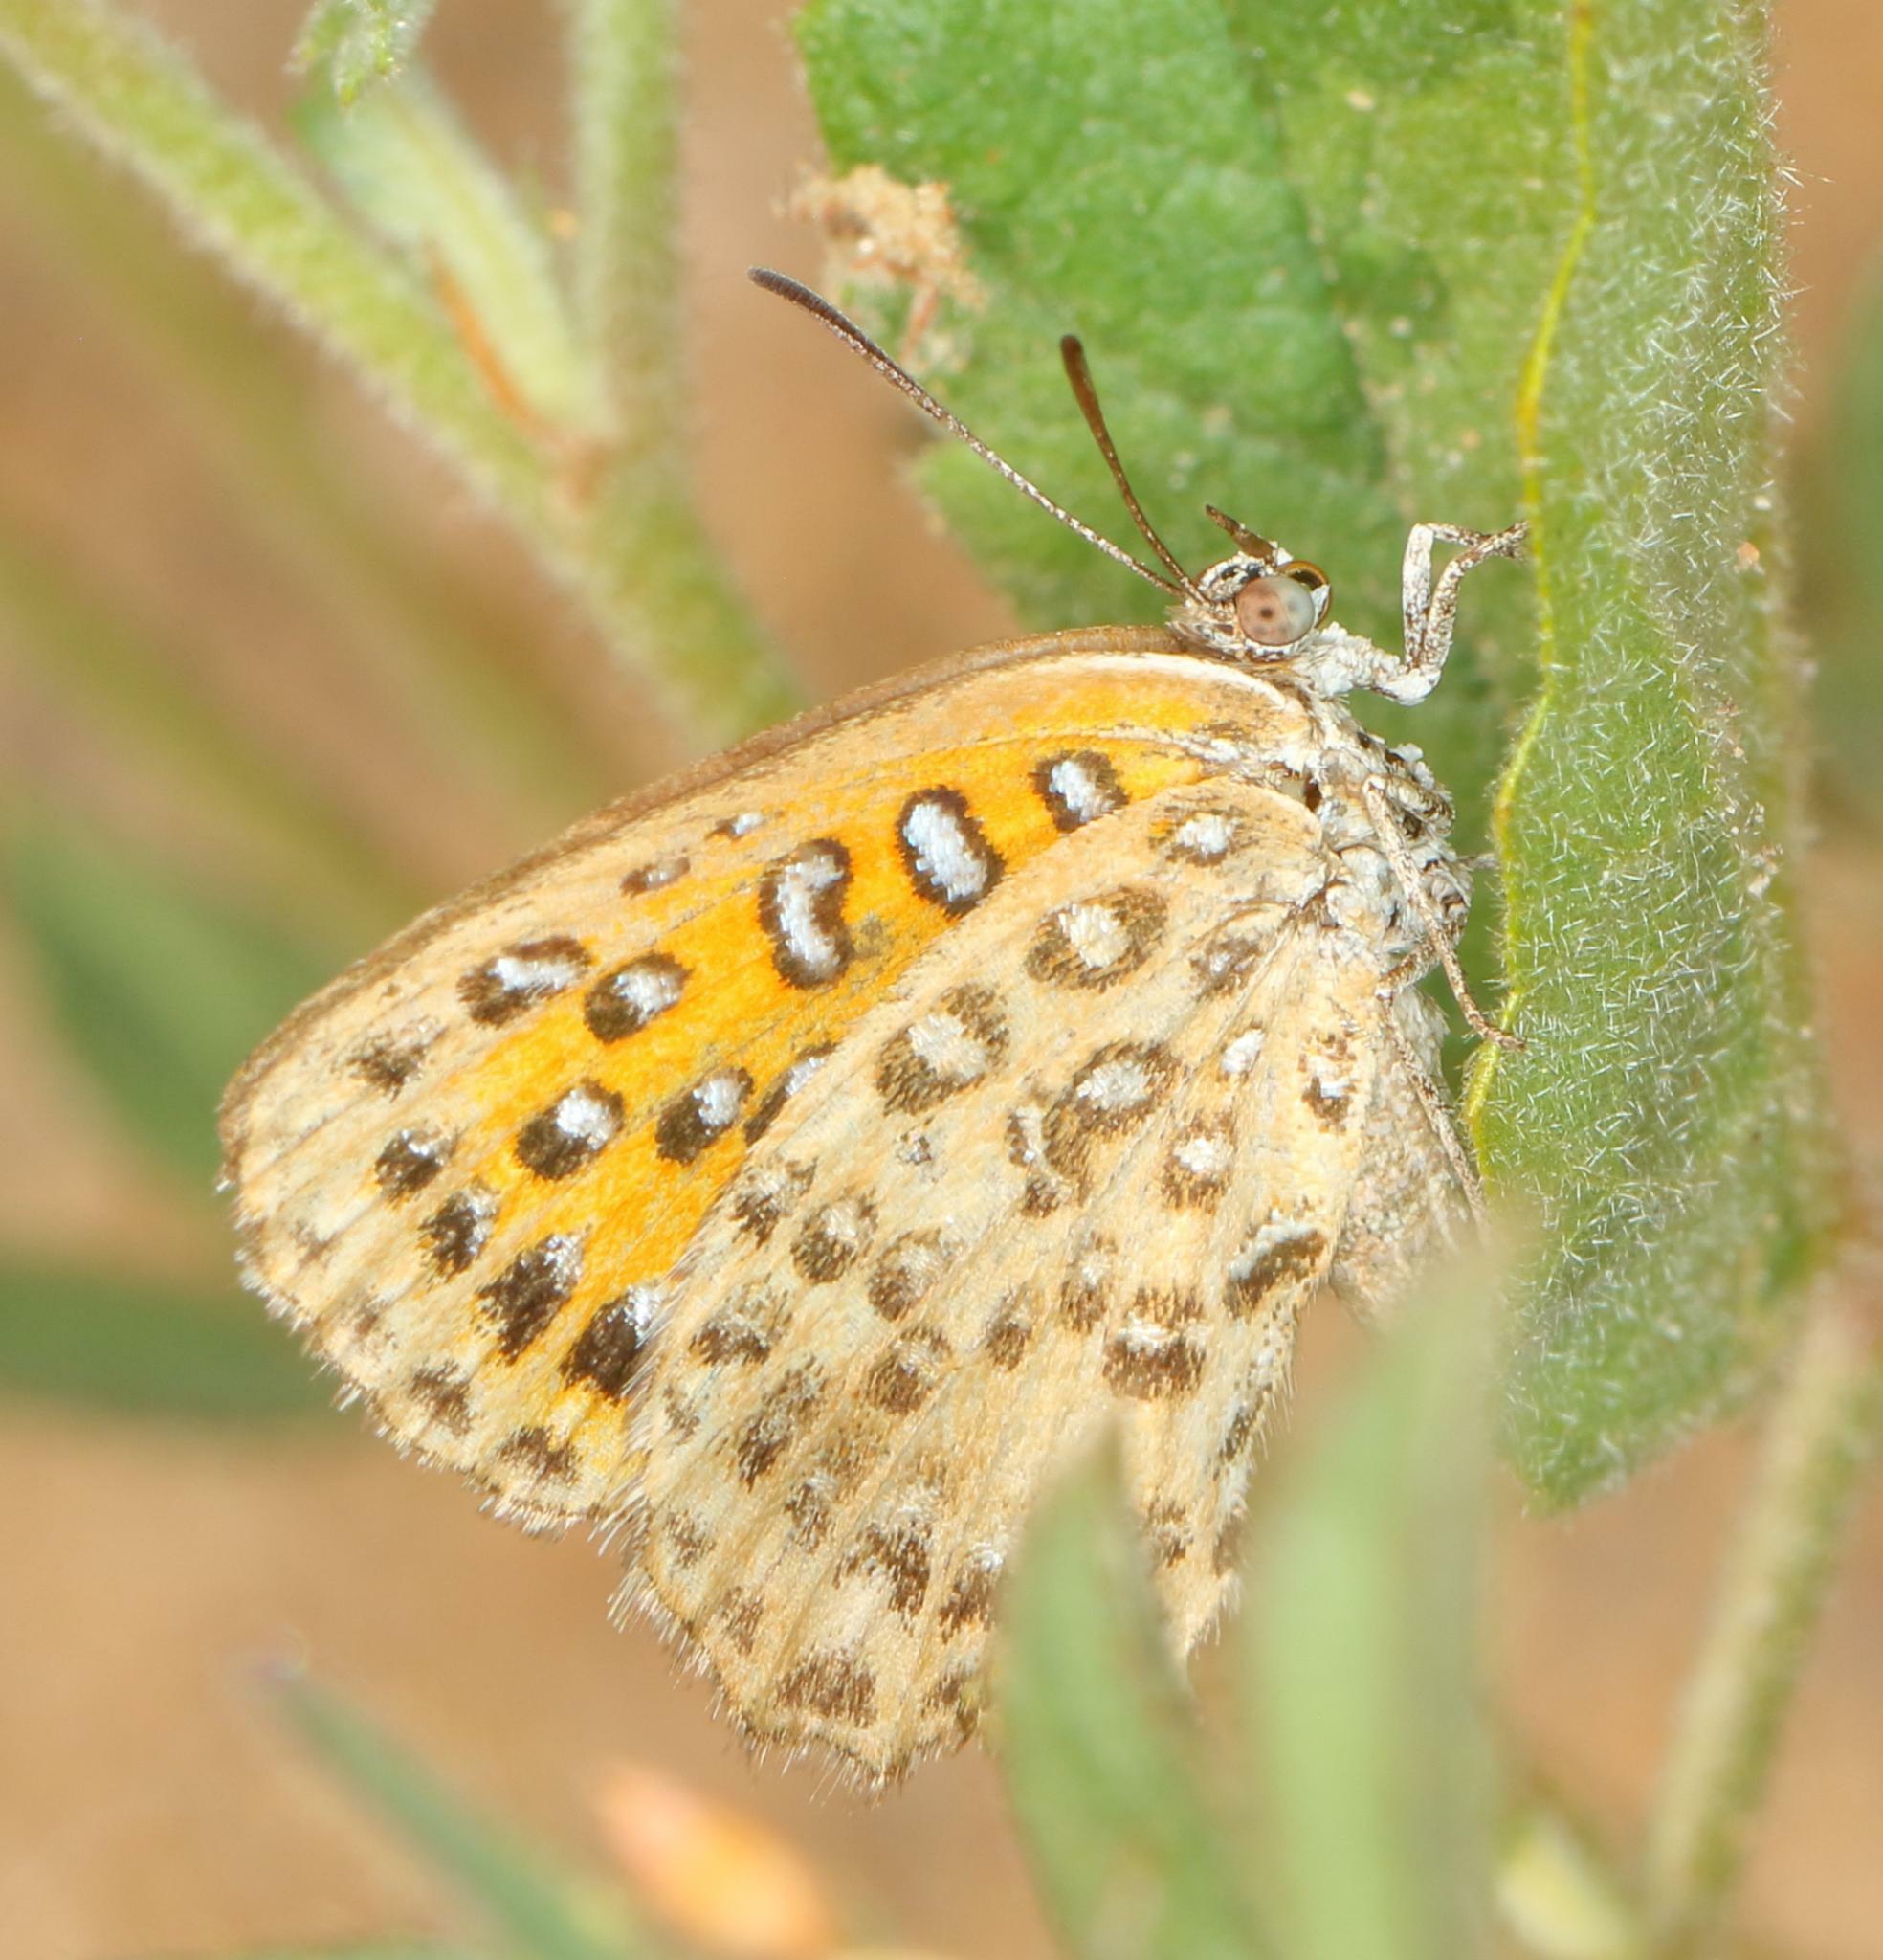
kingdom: Animalia
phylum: Arthropoda
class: Insecta
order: Lepidoptera
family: Lycaenidae
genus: Aloeides
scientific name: Aloeides taikosama
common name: Dusky copper
